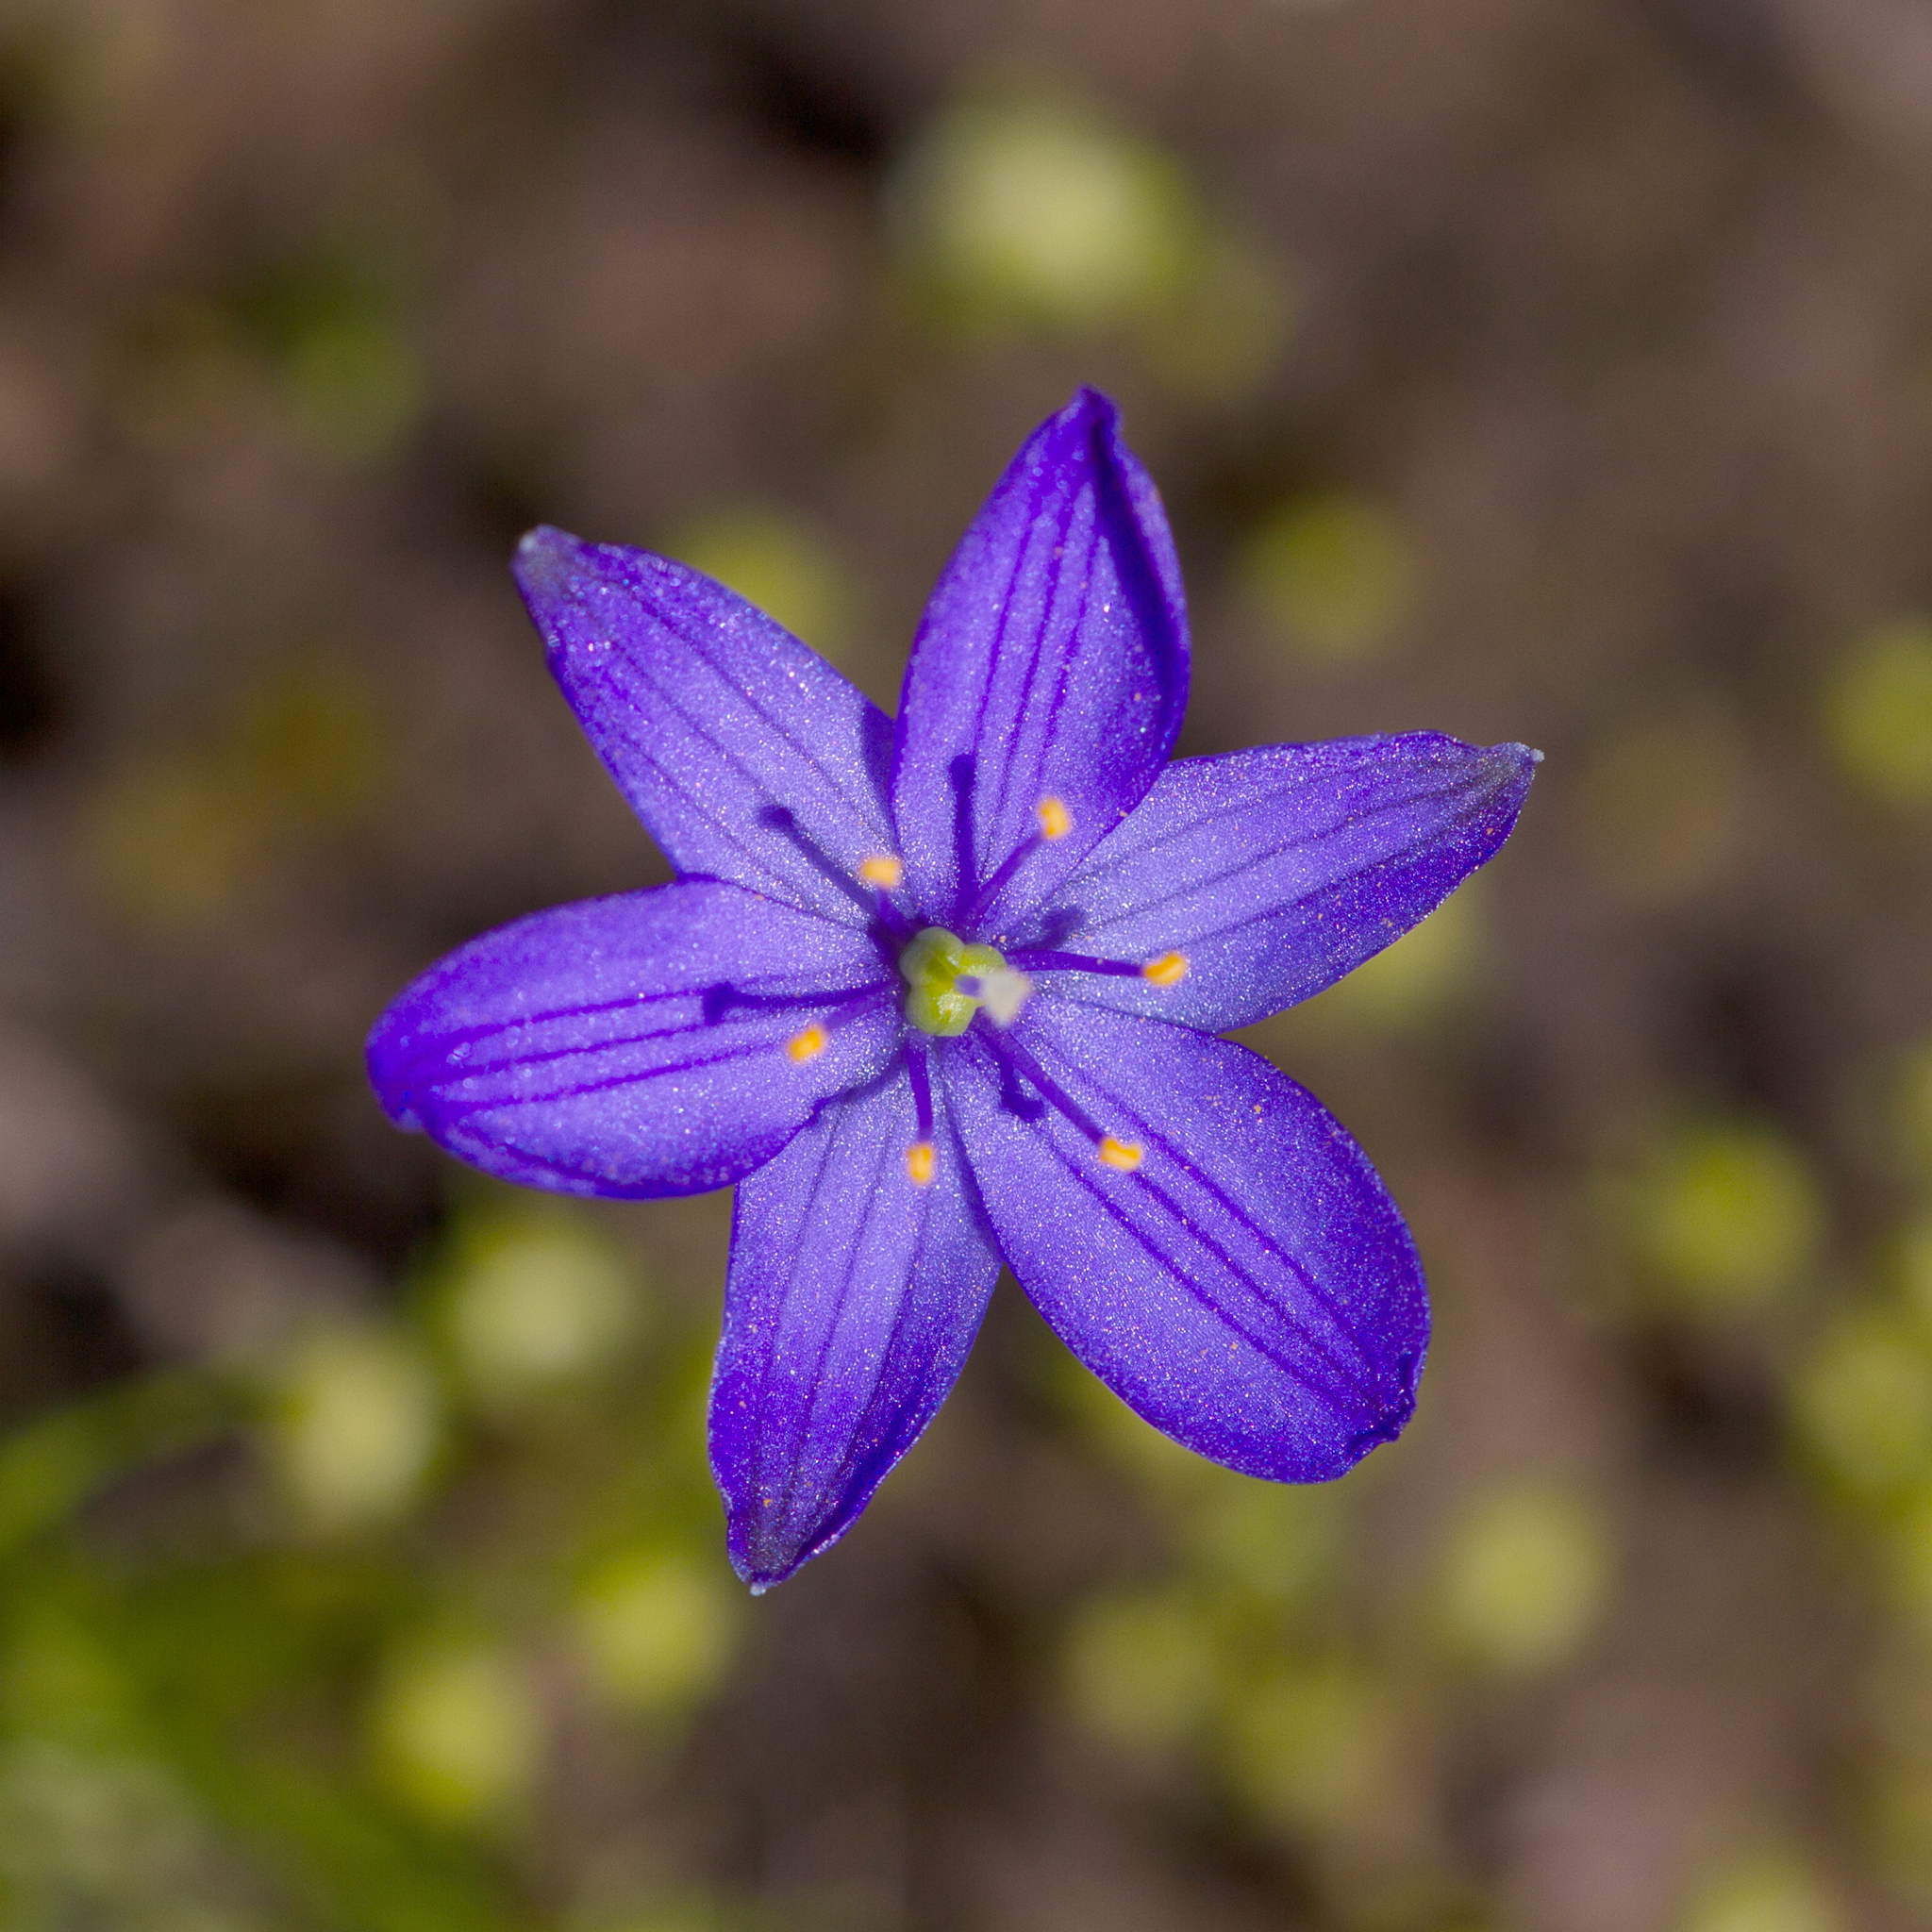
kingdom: Plantae
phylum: Tracheophyta
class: Liliopsida
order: Asparagales
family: Asphodelaceae
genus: Chamaescilla
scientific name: Chamaescilla corymbosa
